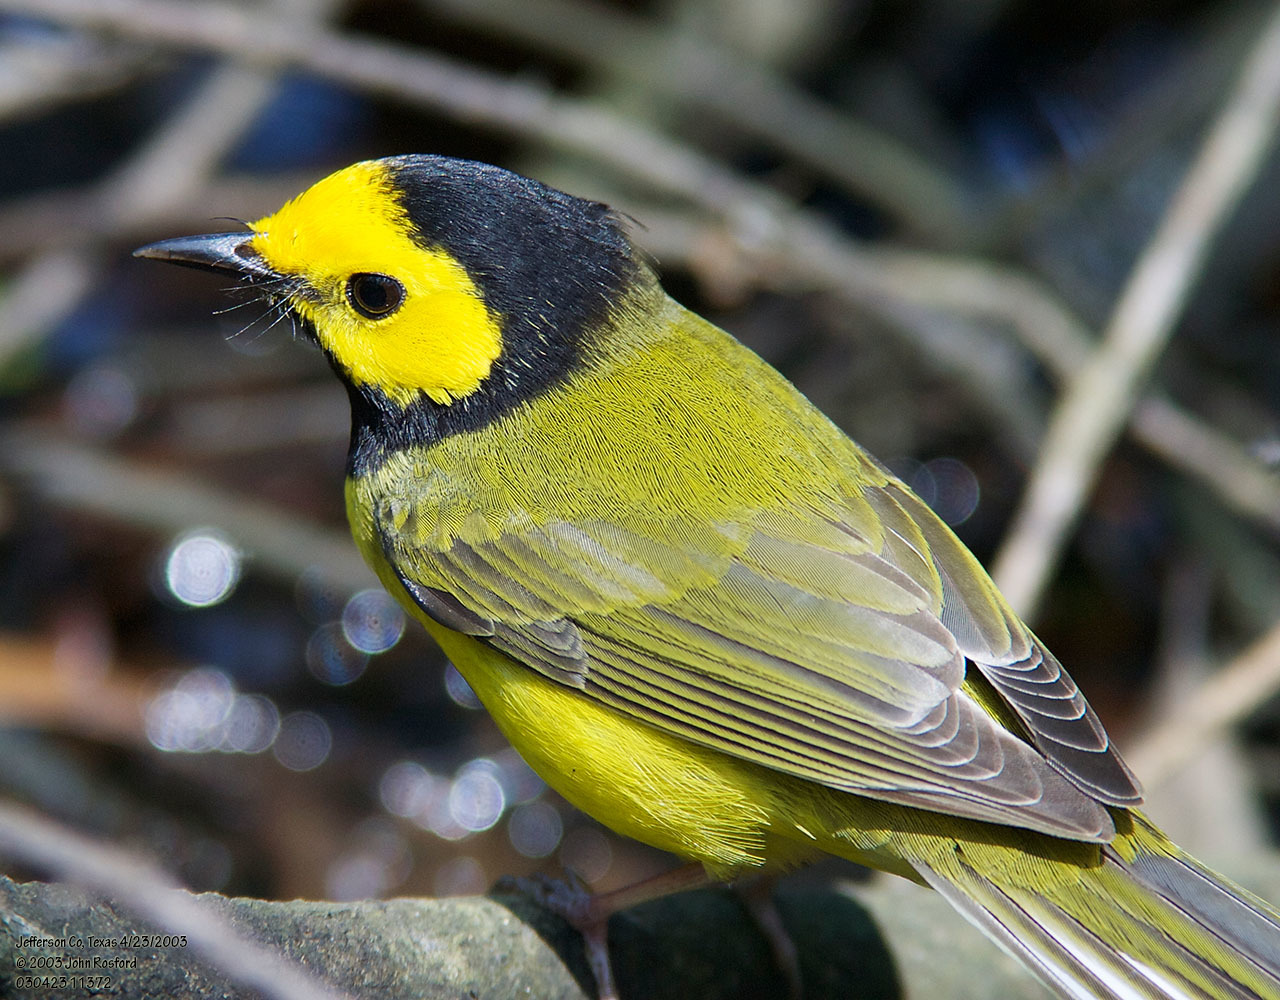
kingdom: Animalia
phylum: Chordata
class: Aves
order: Passeriformes
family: Parulidae
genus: Setophaga
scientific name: Setophaga citrina
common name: Hooded warbler
